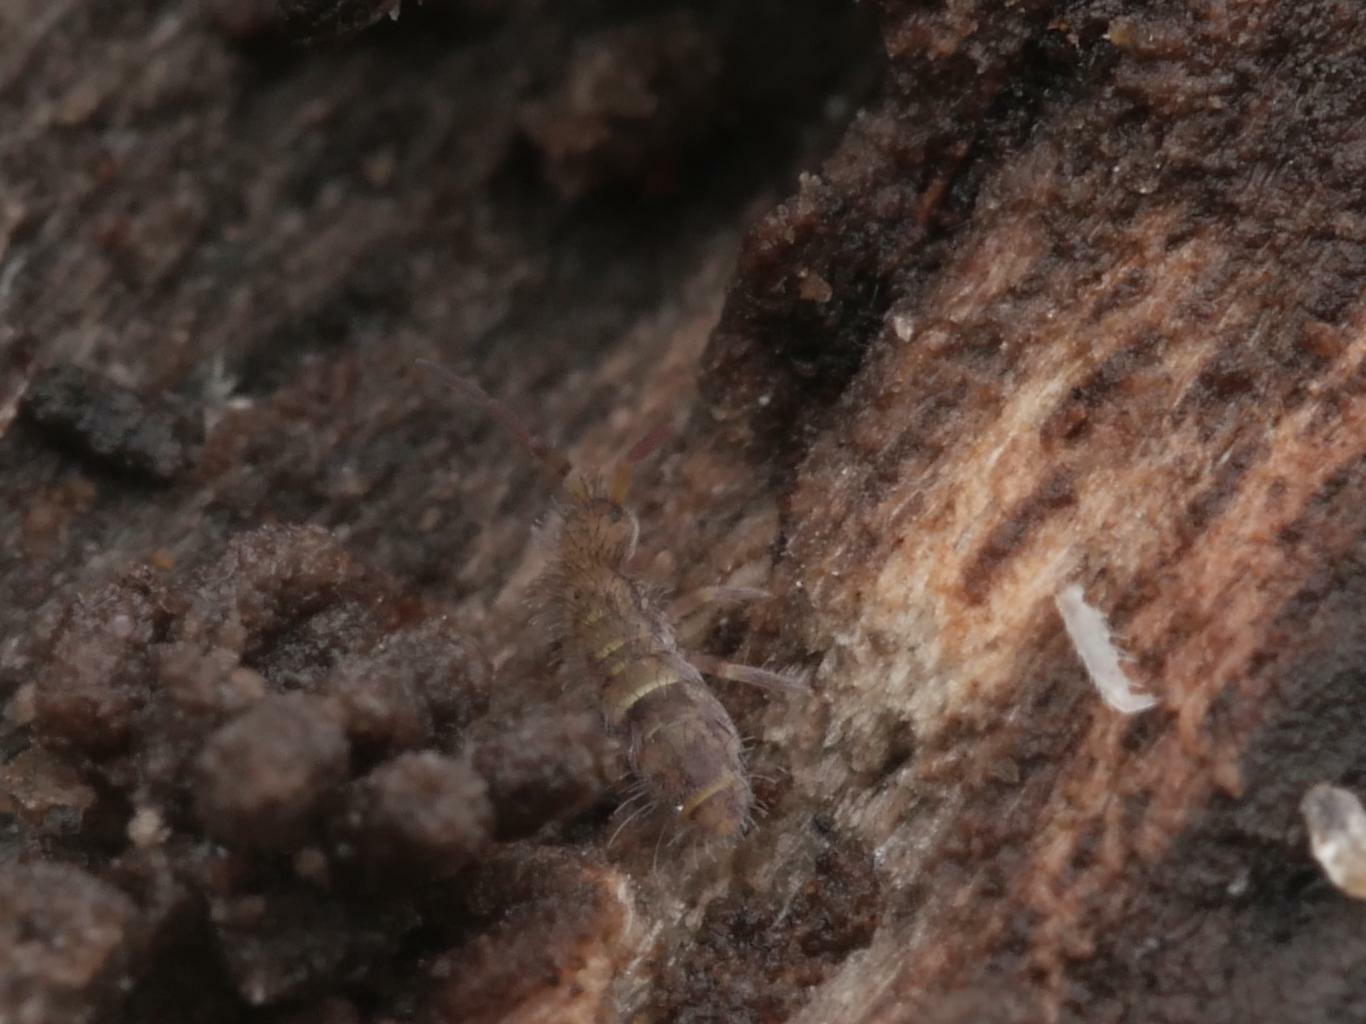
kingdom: Animalia
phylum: Arthropoda
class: Collembola
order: Entomobryomorpha
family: Orchesellidae
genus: Orchesella
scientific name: Orchesella cincta
